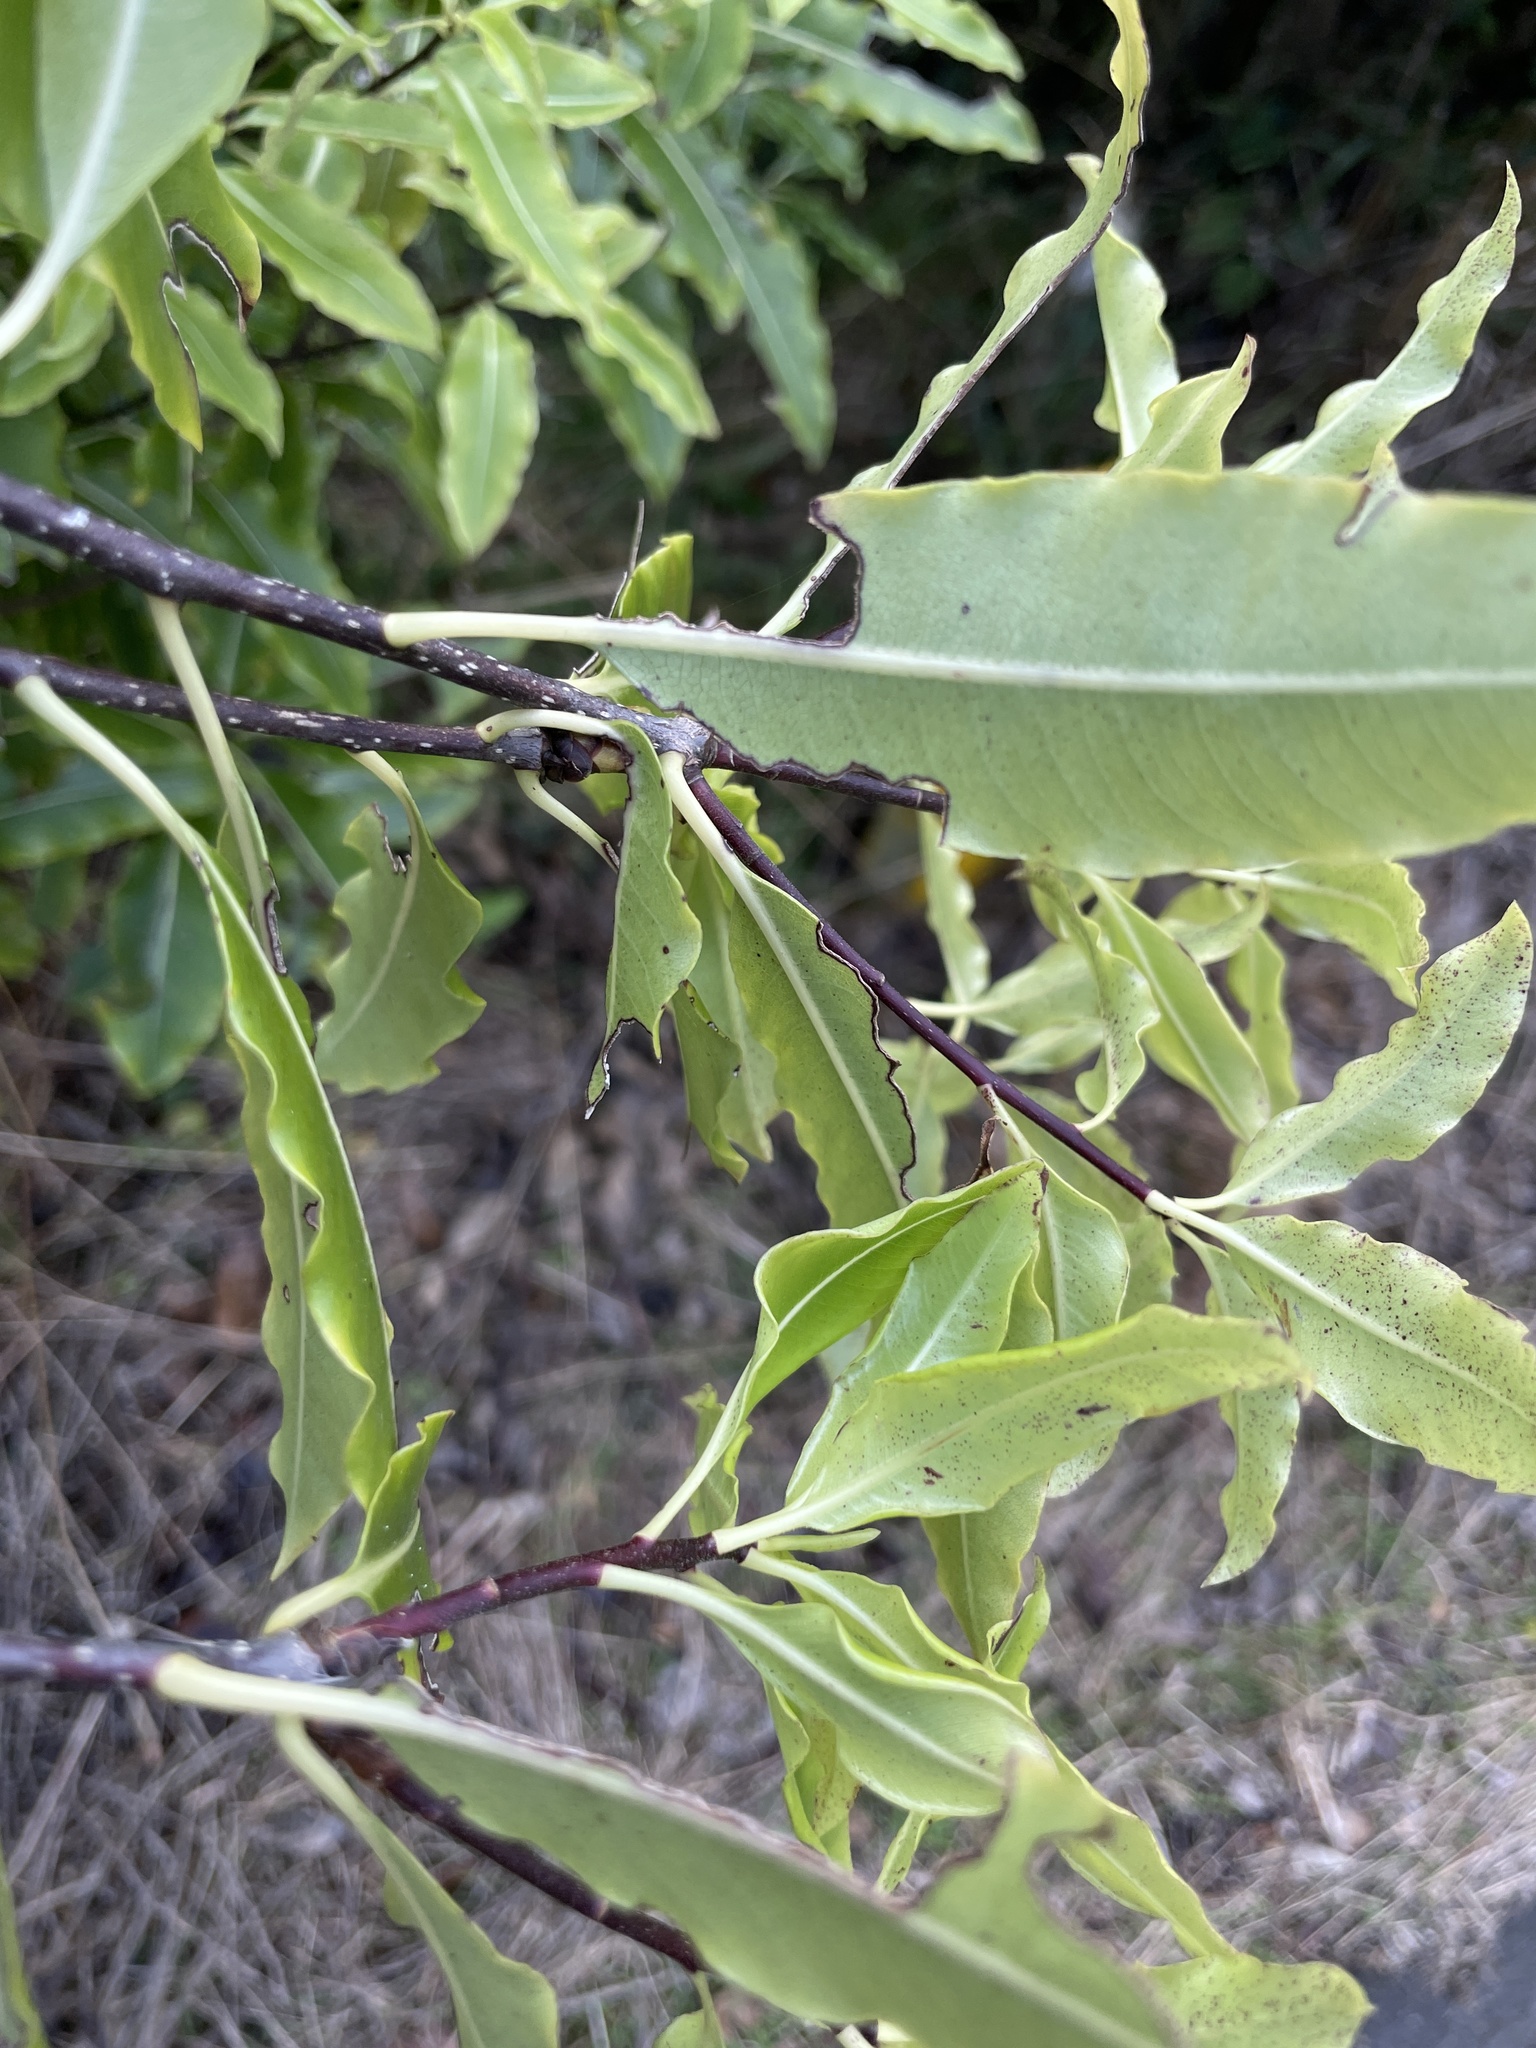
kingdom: Plantae
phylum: Tracheophyta
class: Magnoliopsida
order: Apiales
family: Pittosporaceae
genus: Pittosporum
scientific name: Pittosporum eugenioides
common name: Lemonwood
